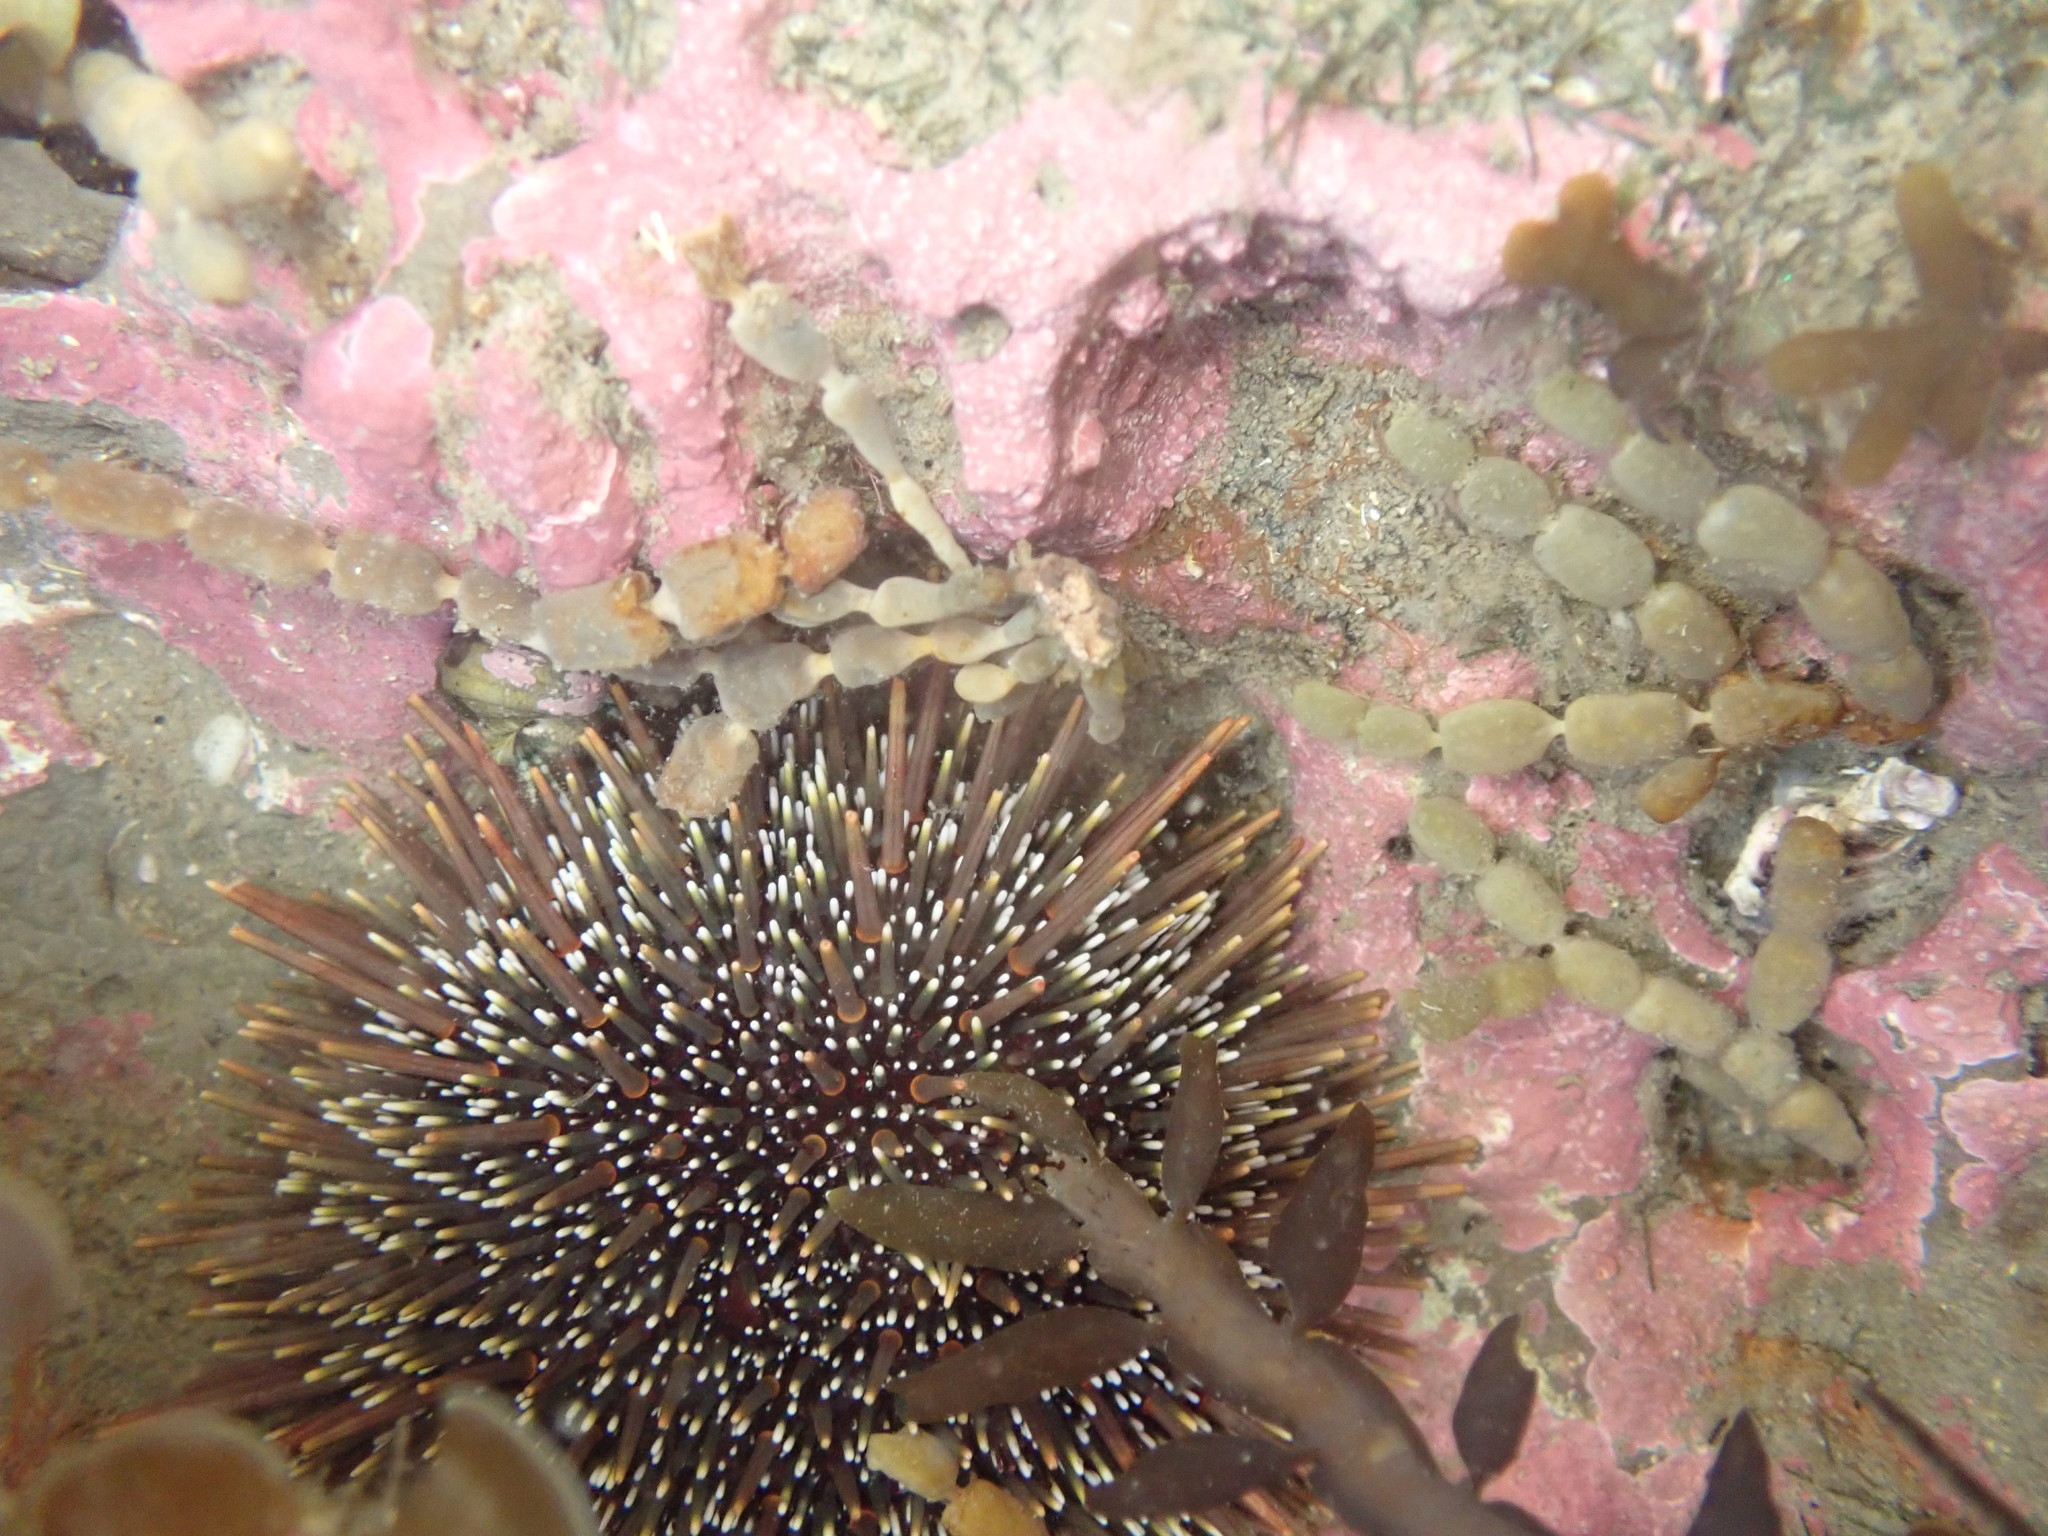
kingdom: Animalia
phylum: Echinodermata
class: Echinoidea
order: Camarodonta
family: Echinometridae
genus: Evechinus
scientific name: Evechinus chloroticus
